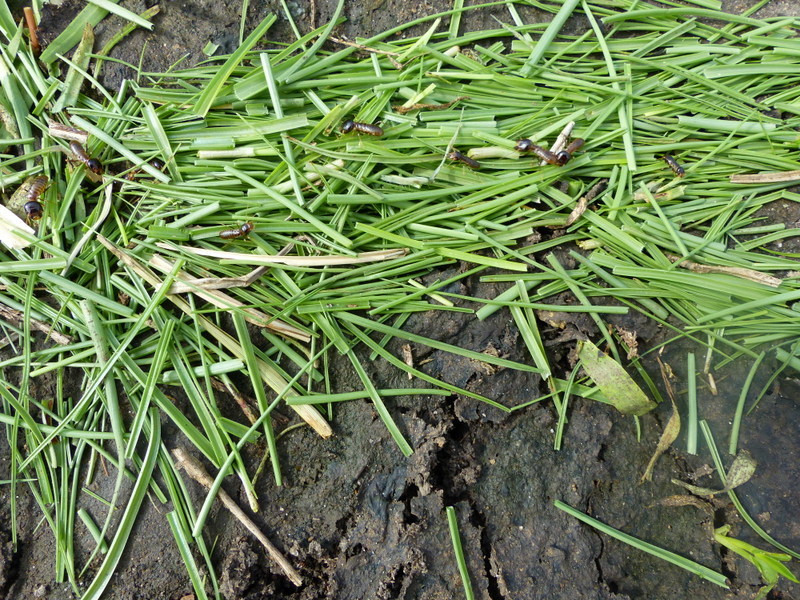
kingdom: Animalia
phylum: Arthropoda
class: Insecta
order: Blattodea
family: Hodotermitidae
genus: Hodotermes
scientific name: Hodotermes mossambicus
